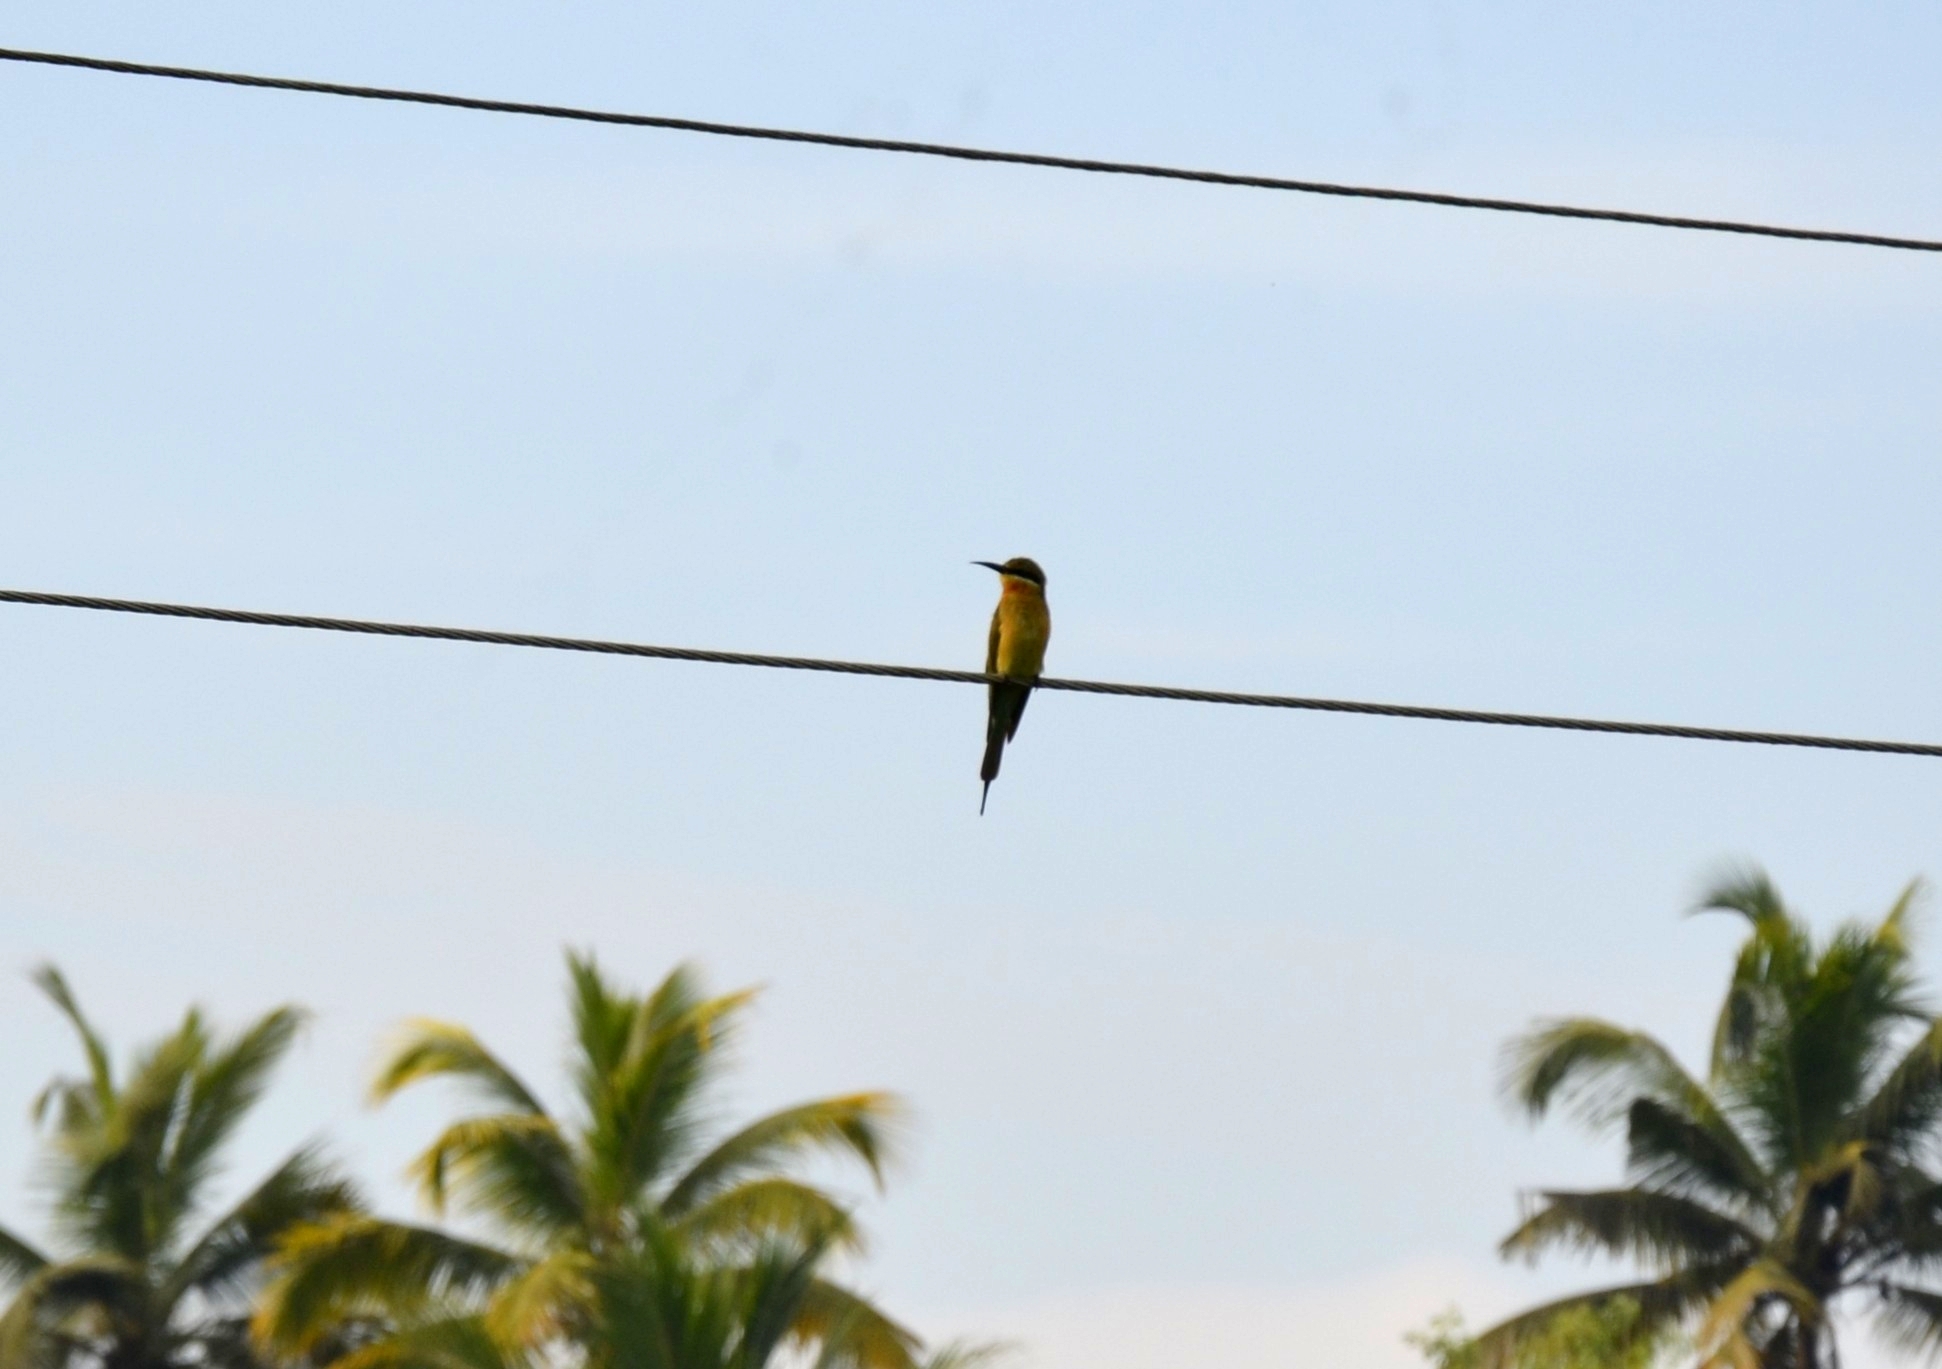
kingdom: Animalia
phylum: Chordata
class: Aves
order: Coraciiformes
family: Meropidae
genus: Merops
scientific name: Merops philippinus
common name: Blue-tailed bee-eater
